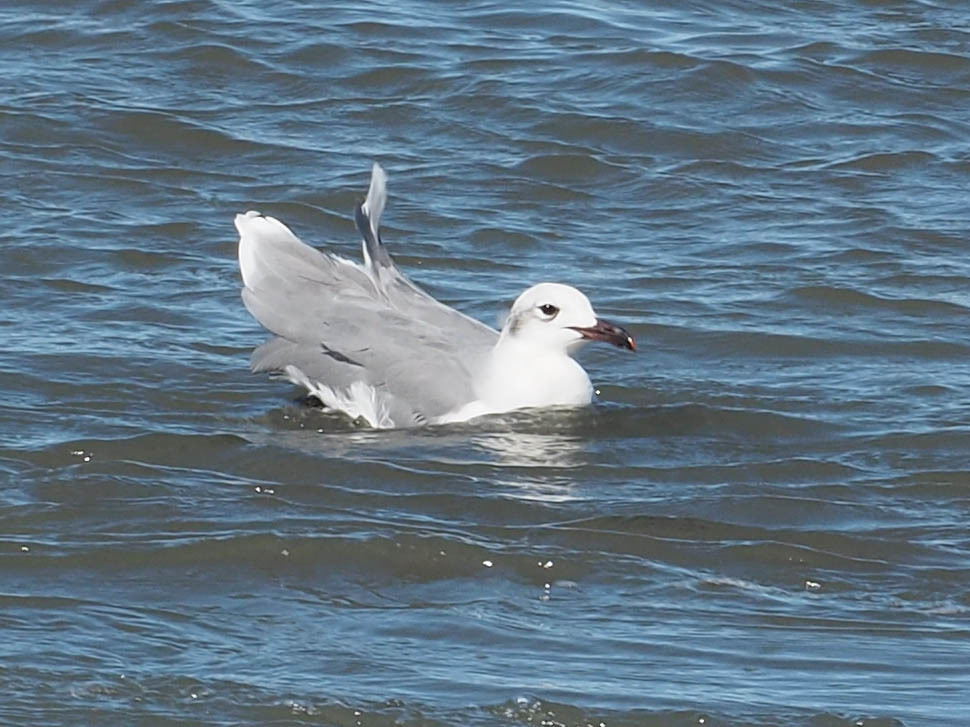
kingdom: Animalia
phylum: Chordata
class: Aves
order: Charadriiformes
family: Laridae
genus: Leucophaeus
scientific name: Leucophaeus atricilla
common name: Laughing gull
